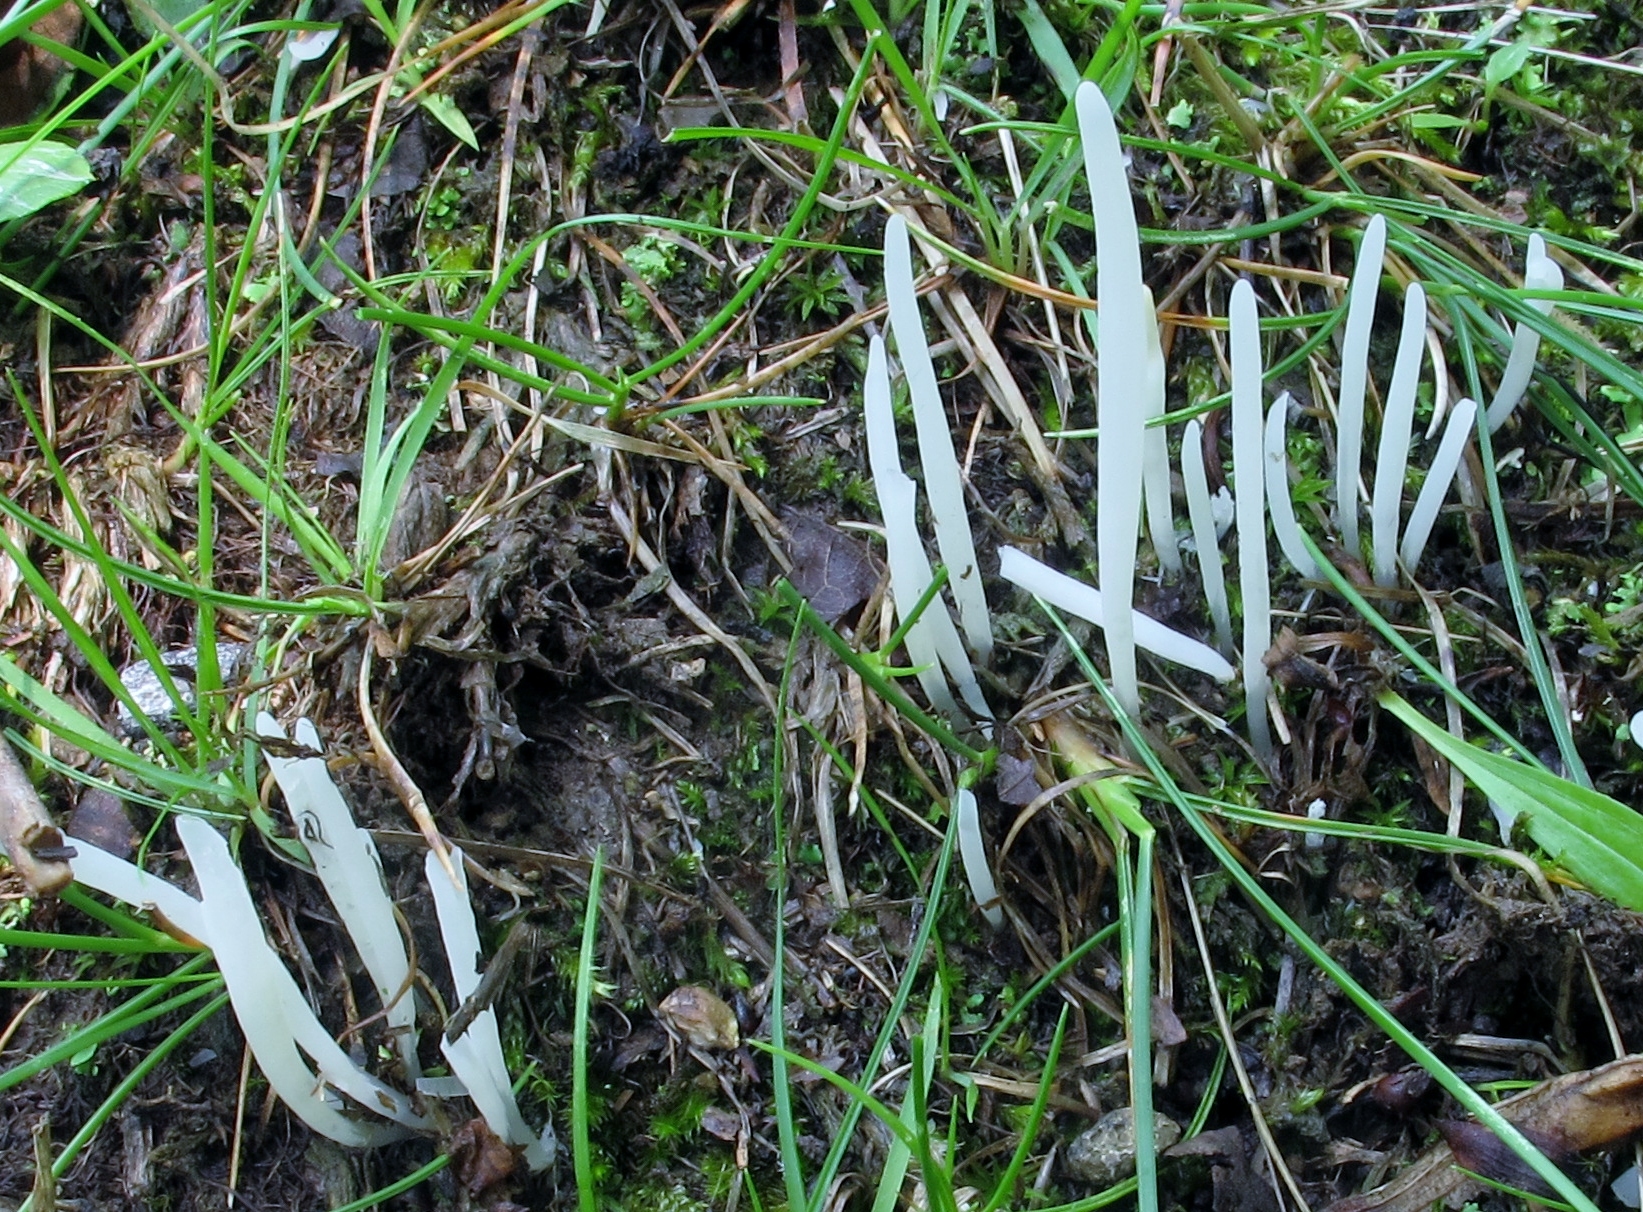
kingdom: Fungi
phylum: Basidiomycota
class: Agaricomycetes
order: Agaricales
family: Clavariaceae
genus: Clavaria
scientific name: Clavaria fragilis
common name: White spindles
